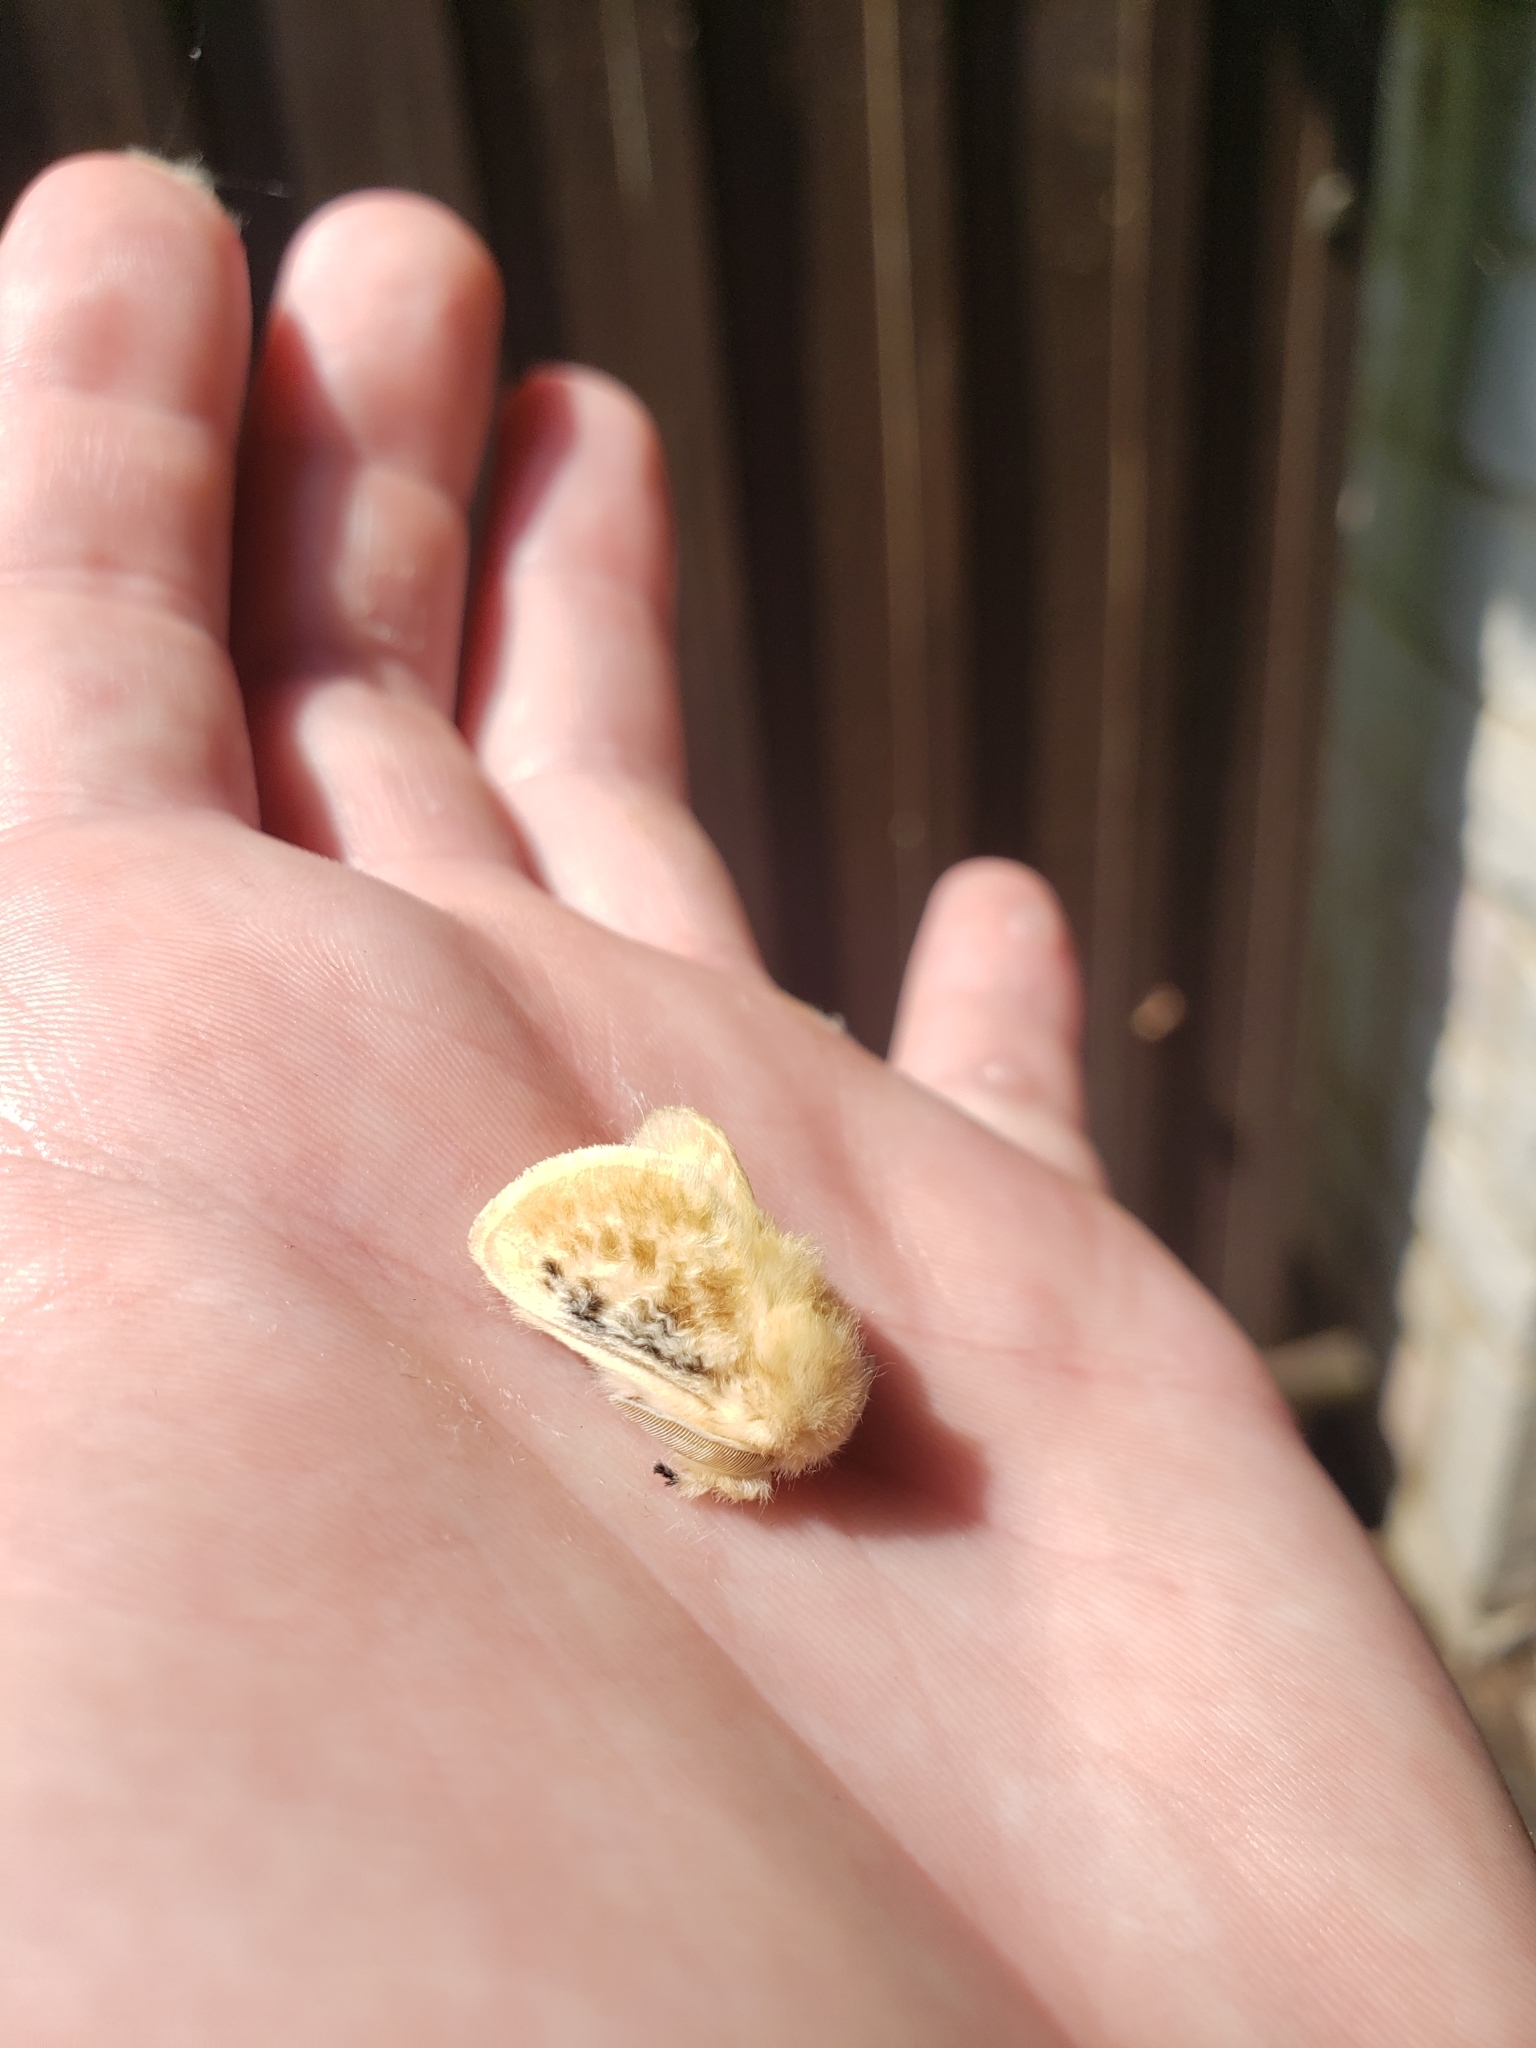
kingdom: Animalia
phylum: Arthropoda
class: Insecta
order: Lepidoptera
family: Megalopygidae
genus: Megalopyge
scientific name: Megalopyge crispata
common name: Black-waved flannel moth
